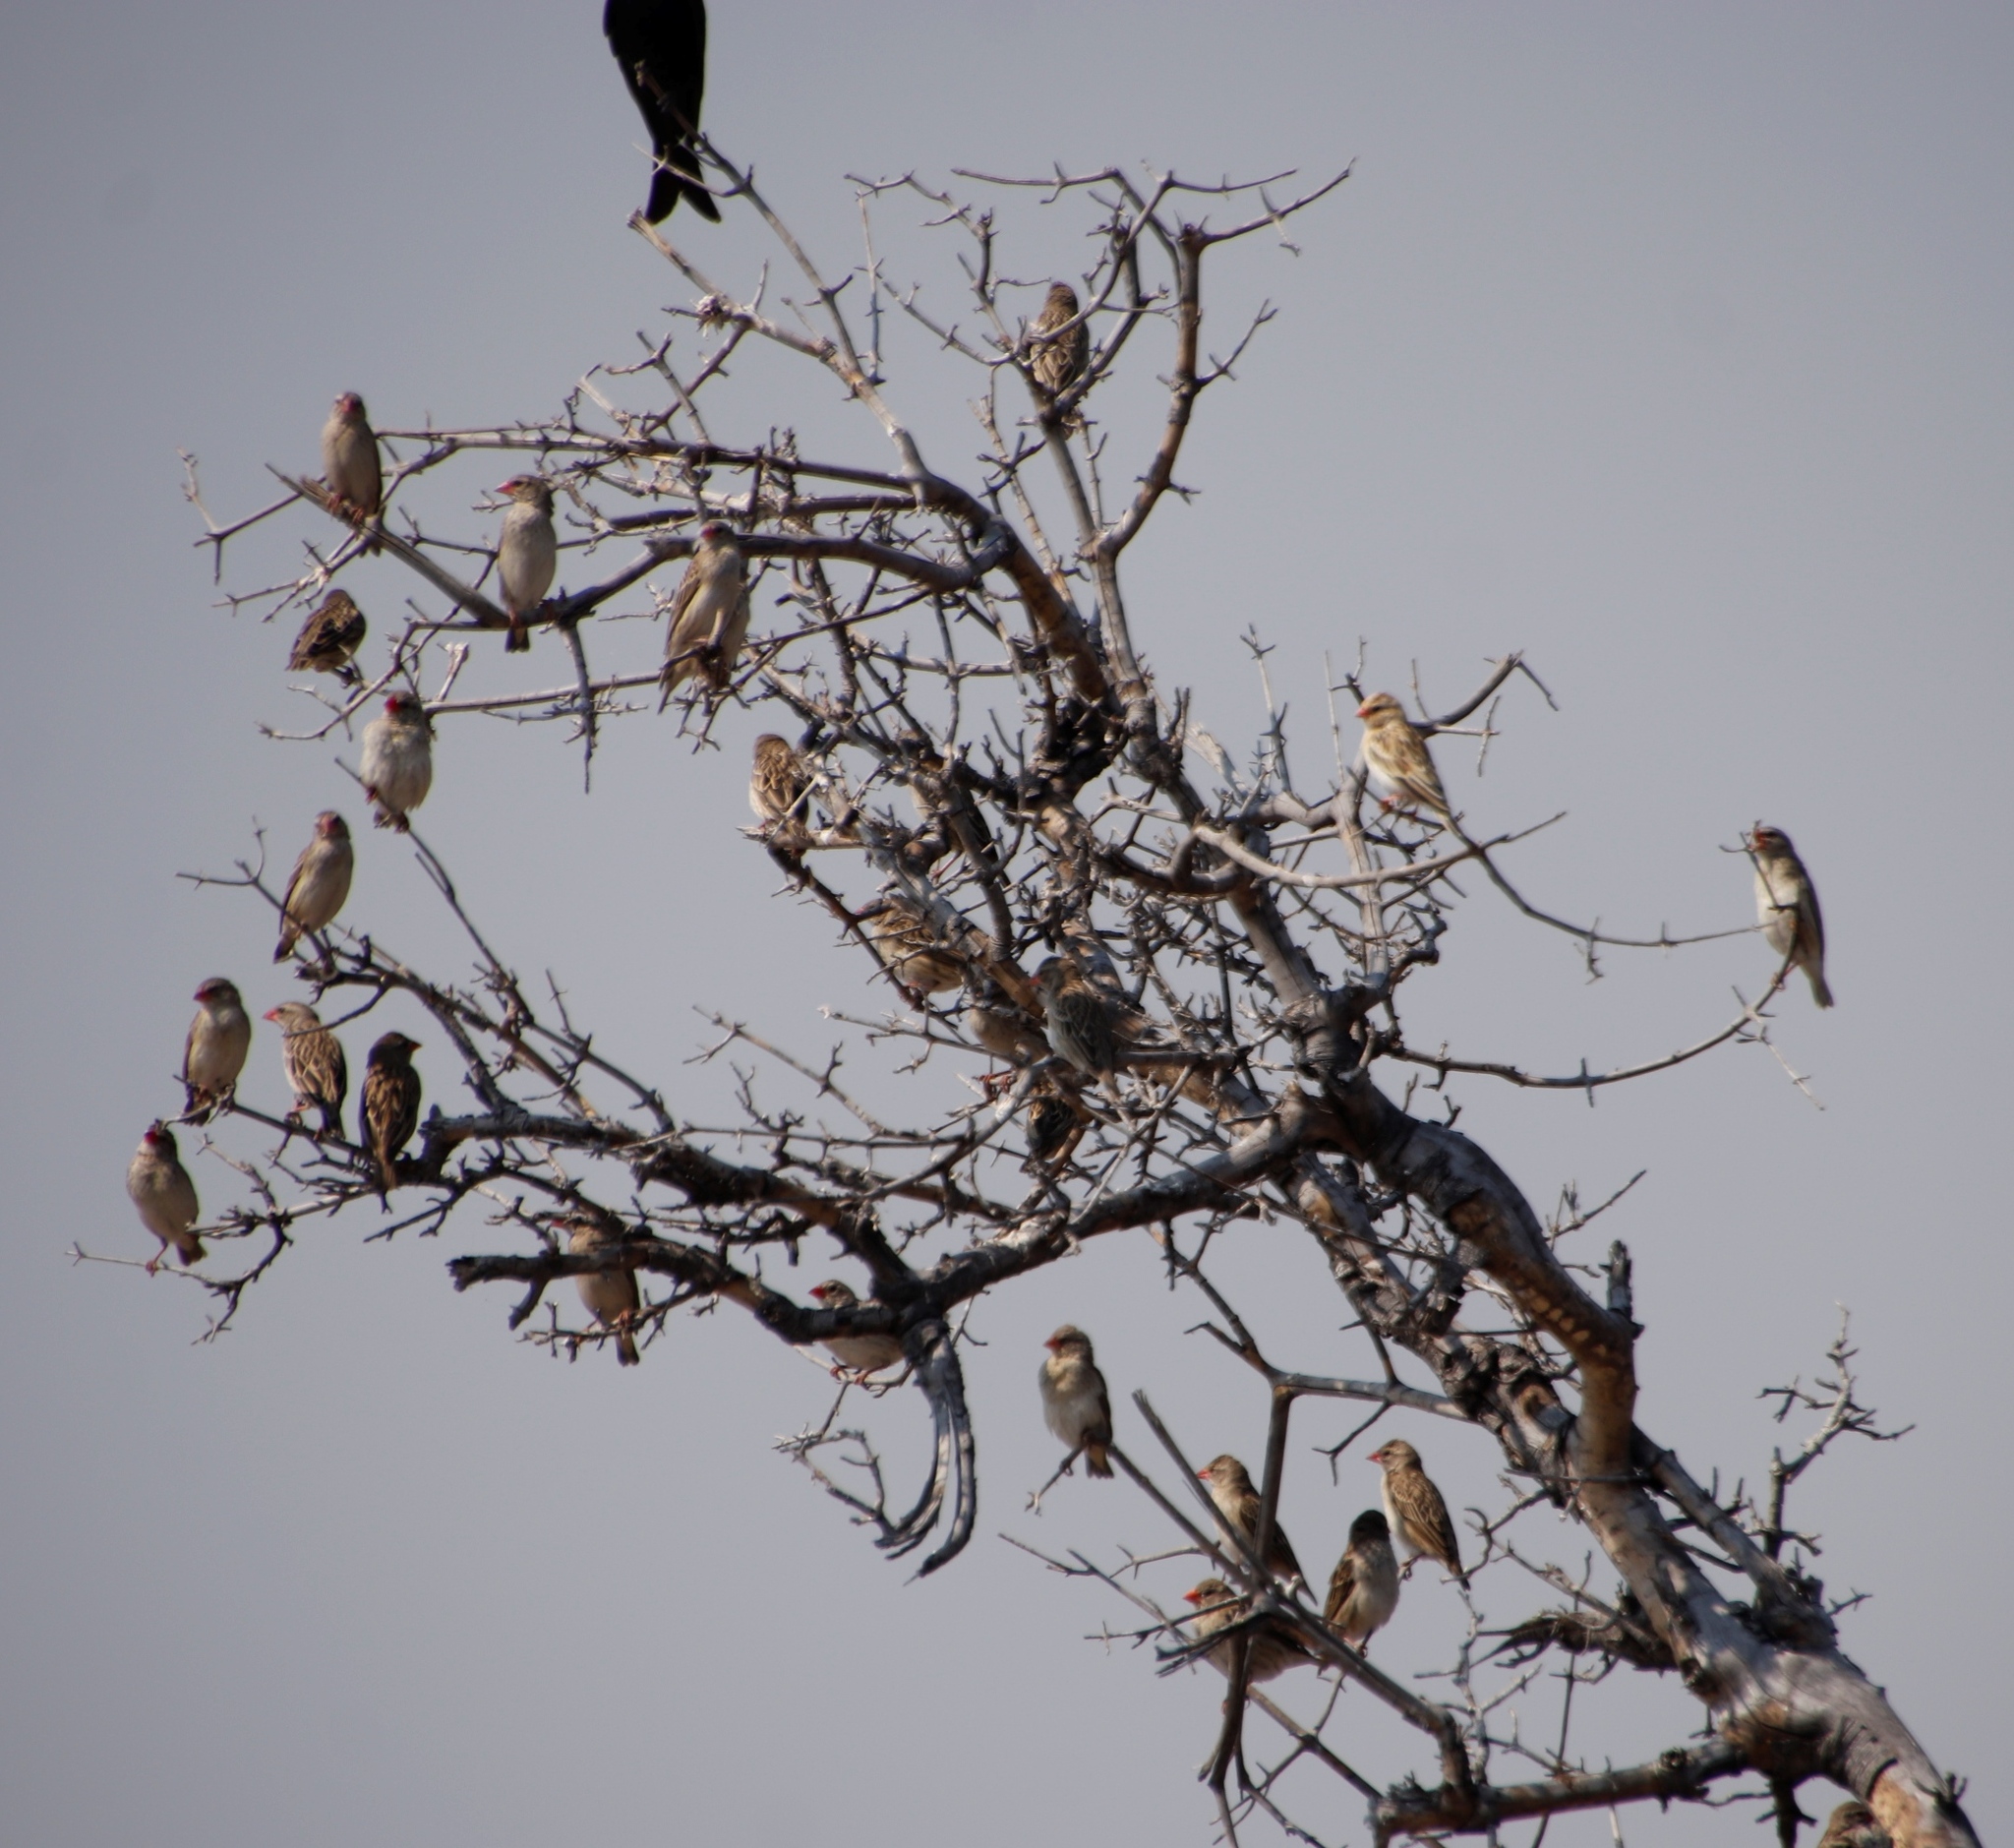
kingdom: Animalia
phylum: Chordata
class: Aves
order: Passeriformes
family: Ploceidae
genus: Quelea
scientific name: Quelea quelea
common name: Red-billed quelea
